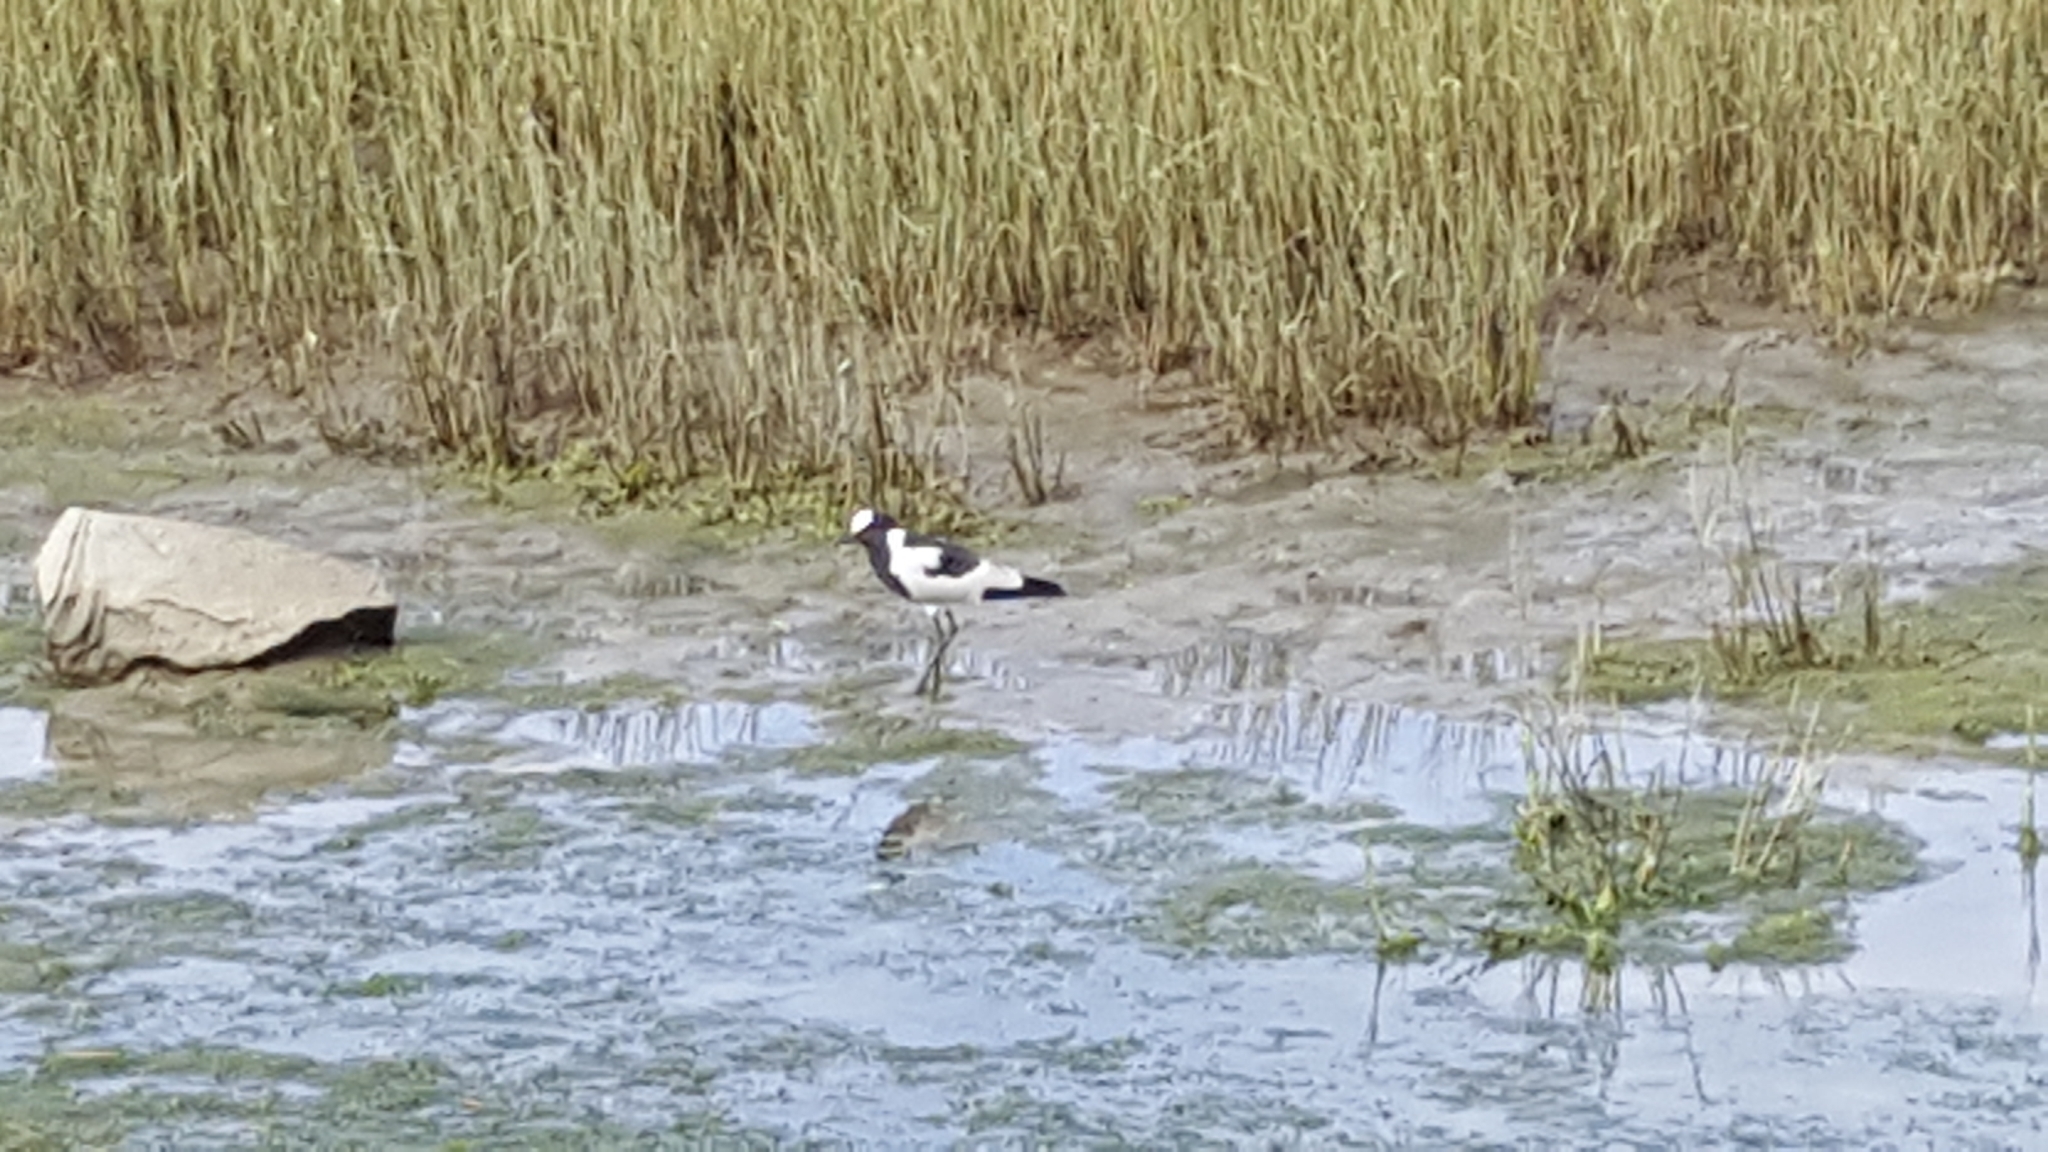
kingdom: Animalia
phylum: Chordata
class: Aves
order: Charadriiformes
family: Charadriidae
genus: Vanellus
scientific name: Vanellus armatus
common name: Blacksmith lapwing
